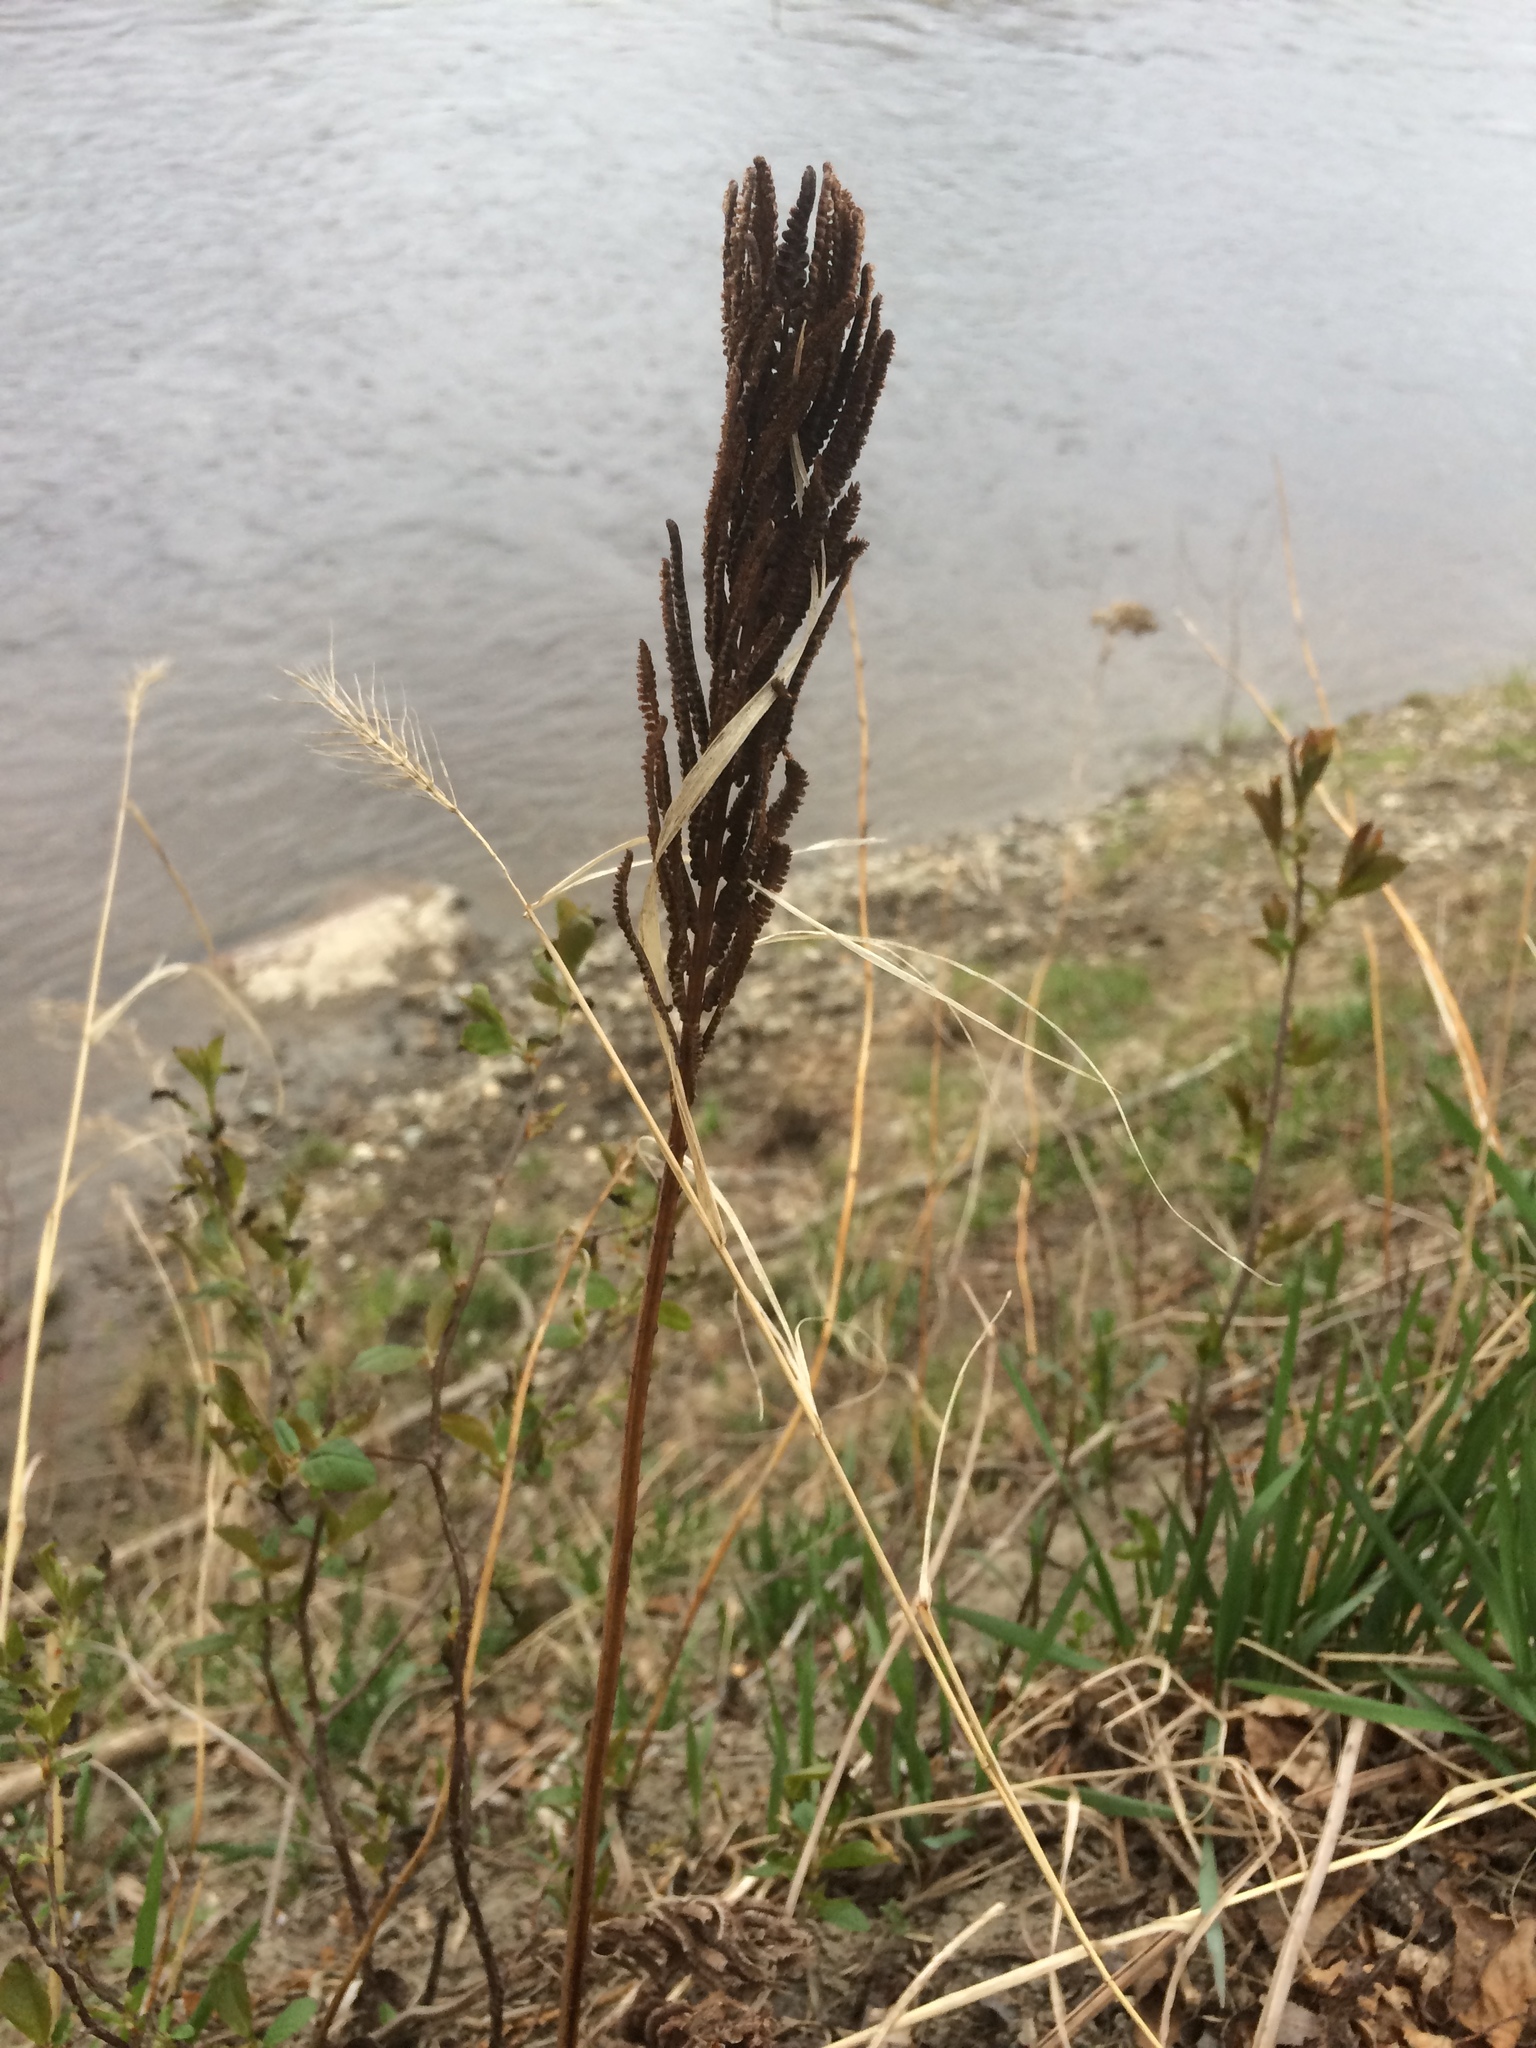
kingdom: Plantae
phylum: Tracheophyta
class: Polypodiopsida
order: Polypodiales
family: Onocleaceae
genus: Matteuccia
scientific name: Matteuccia struthiopteris
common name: Ostrich fern
